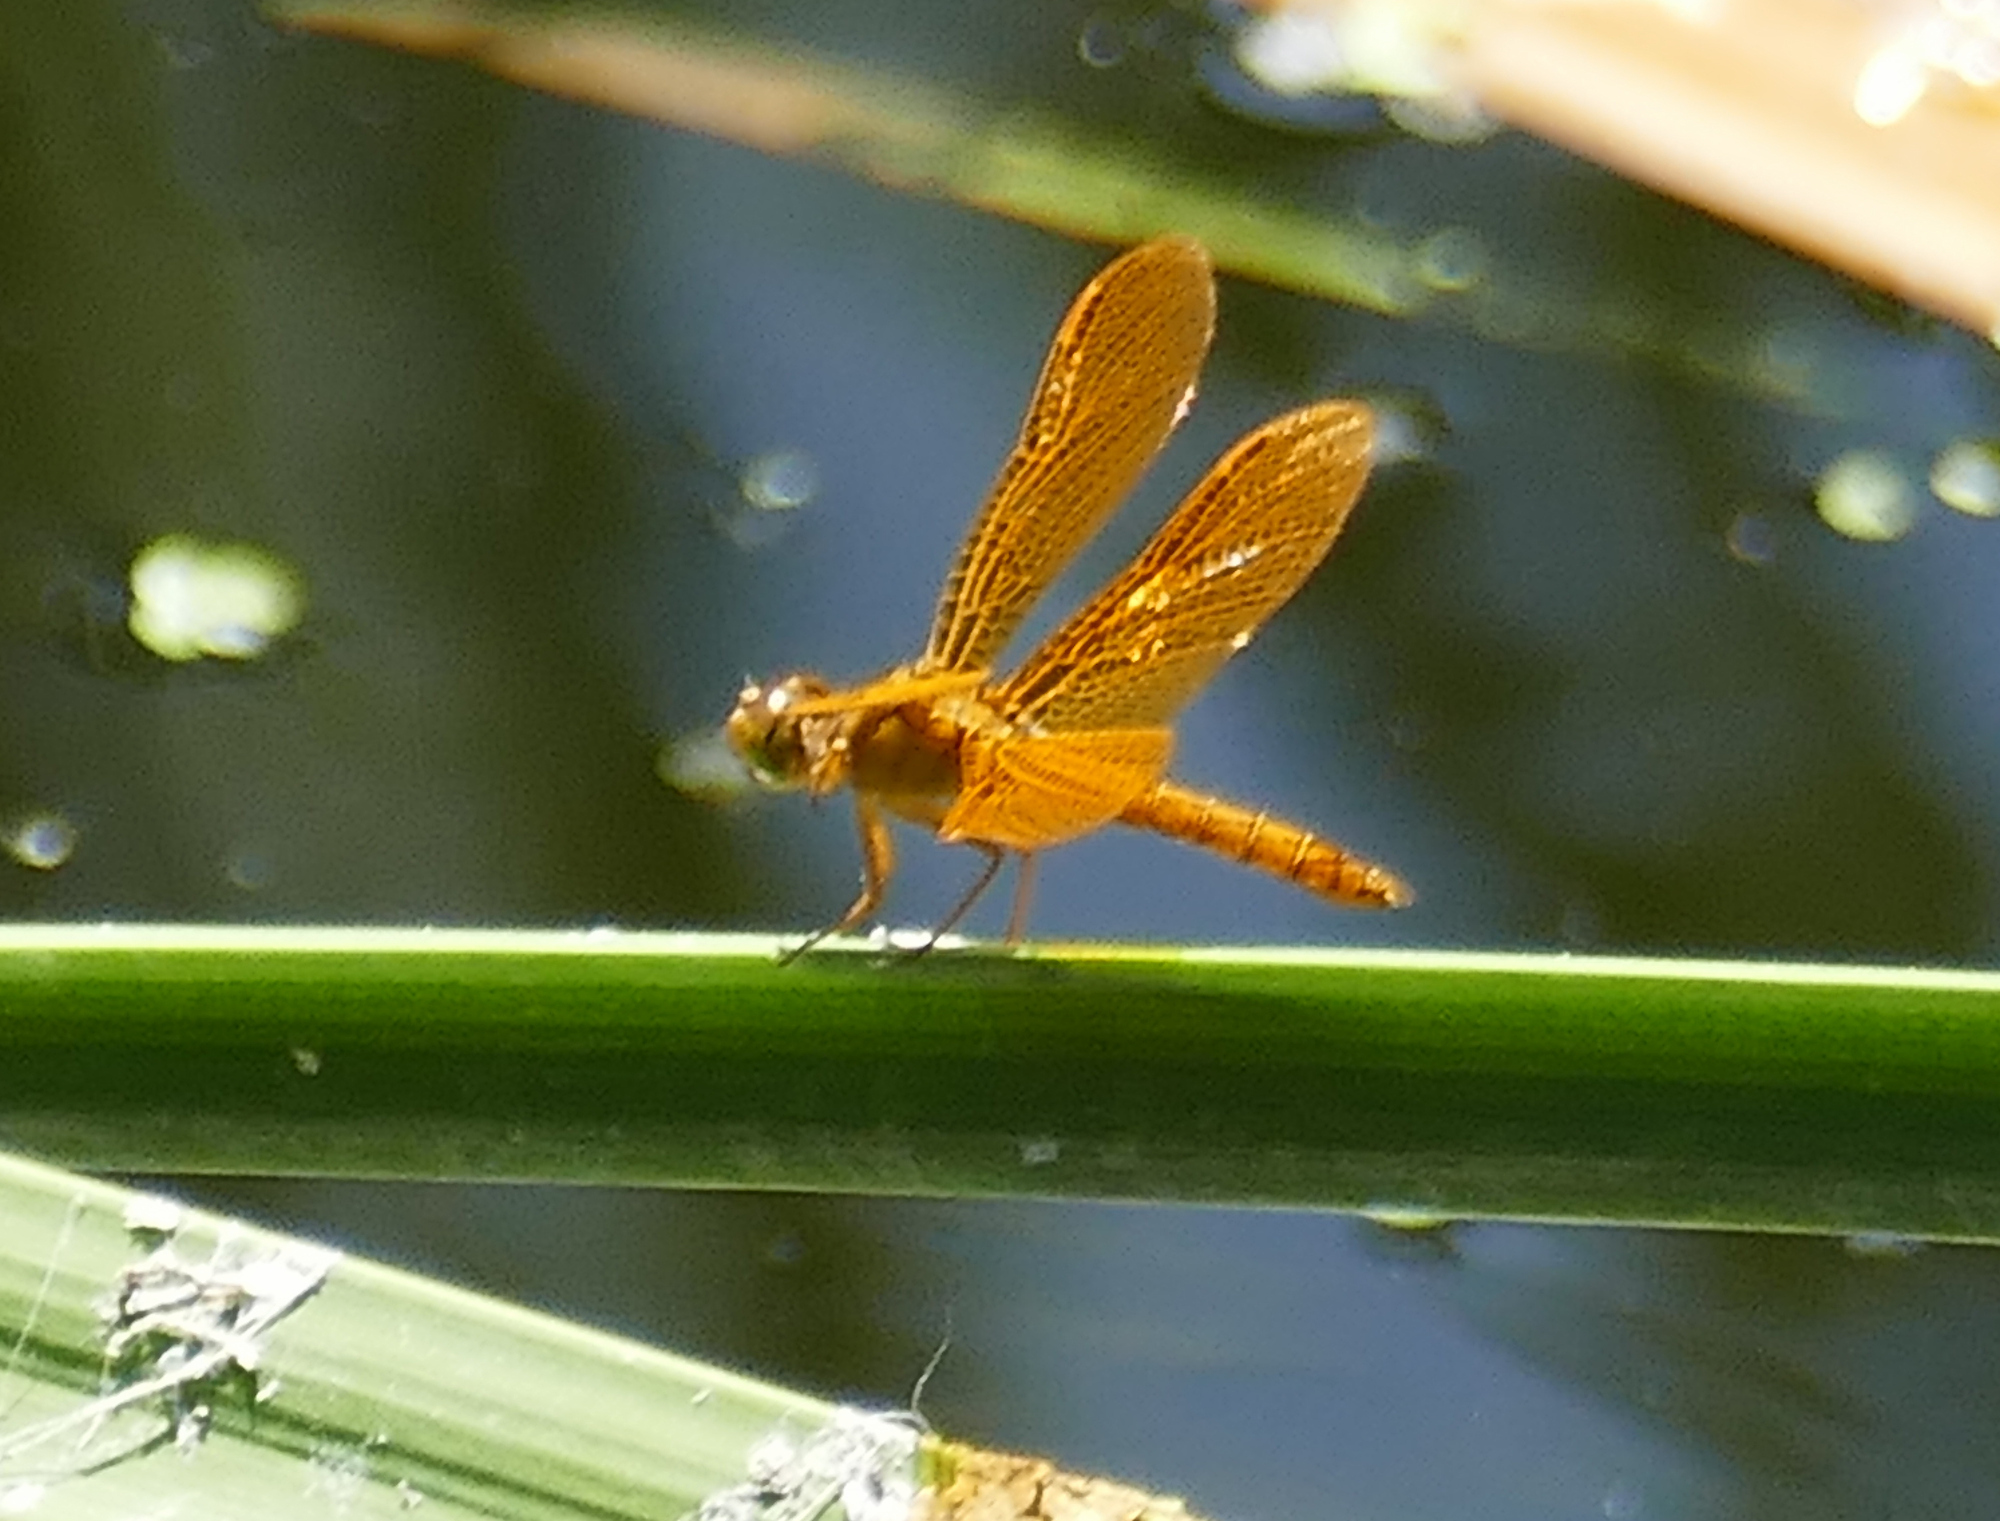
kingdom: Animalia
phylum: Arthropoda
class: Insecta
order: Odonata
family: Libellulidae
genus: Perithemis
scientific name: Perithemis intensa
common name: Mexican amberwing
